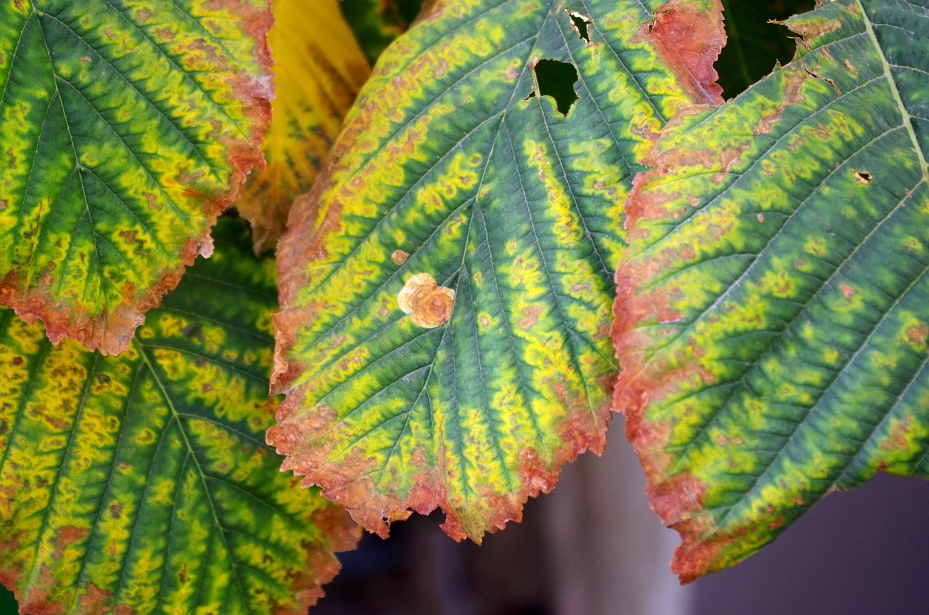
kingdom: Fungi
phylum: Ascomycota
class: Dothideomycetes
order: Botryosphaeriales
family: Phyllostictaceae
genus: Phyllosticta
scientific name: Phyllosticta paviae
